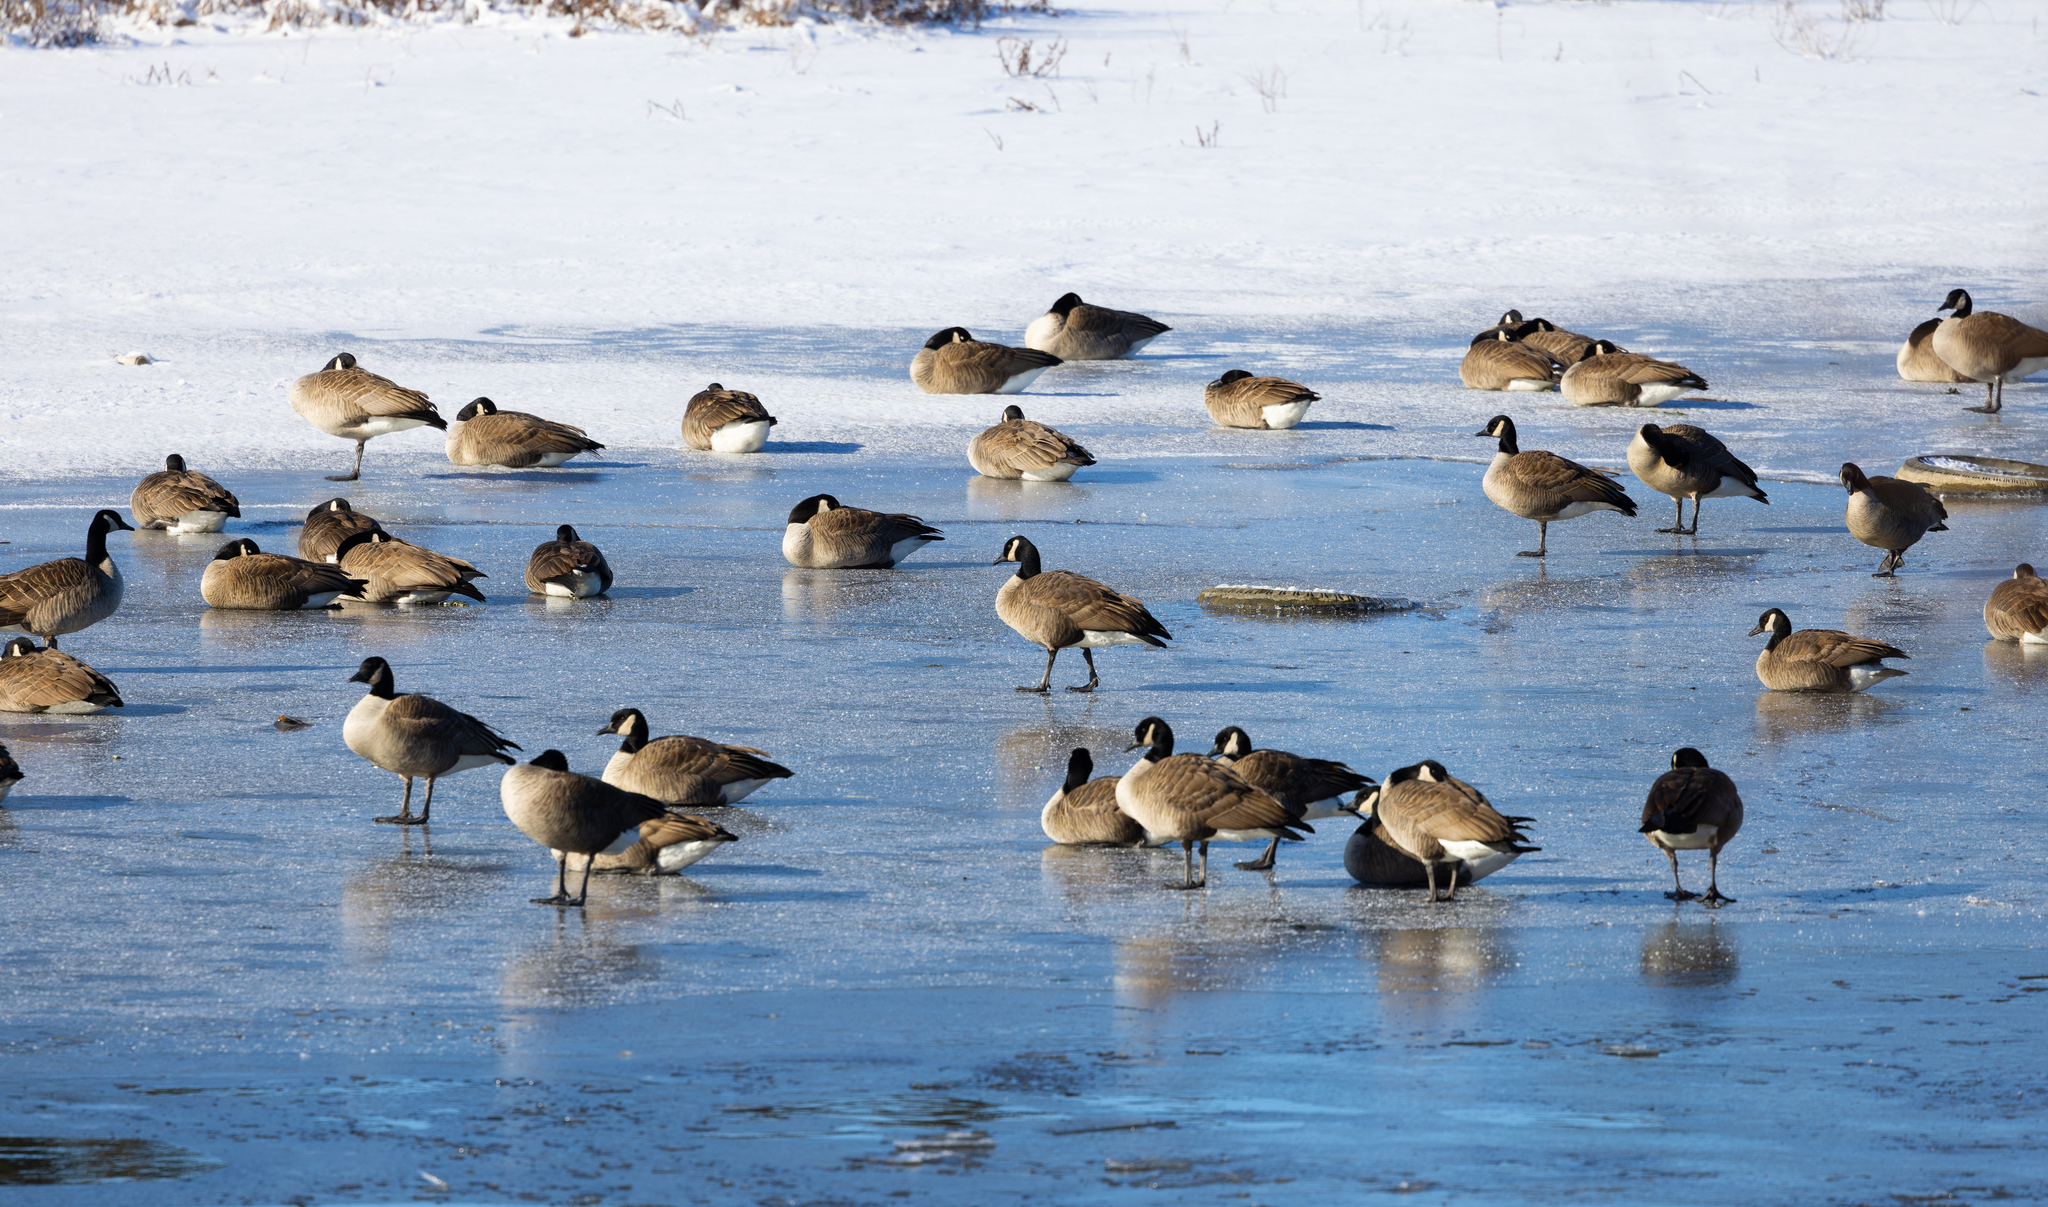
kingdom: Animalia
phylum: Chordata
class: Aves
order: Anseriformes
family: Anatidae
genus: Branta
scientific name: Branta canadensis
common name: Canada goose
